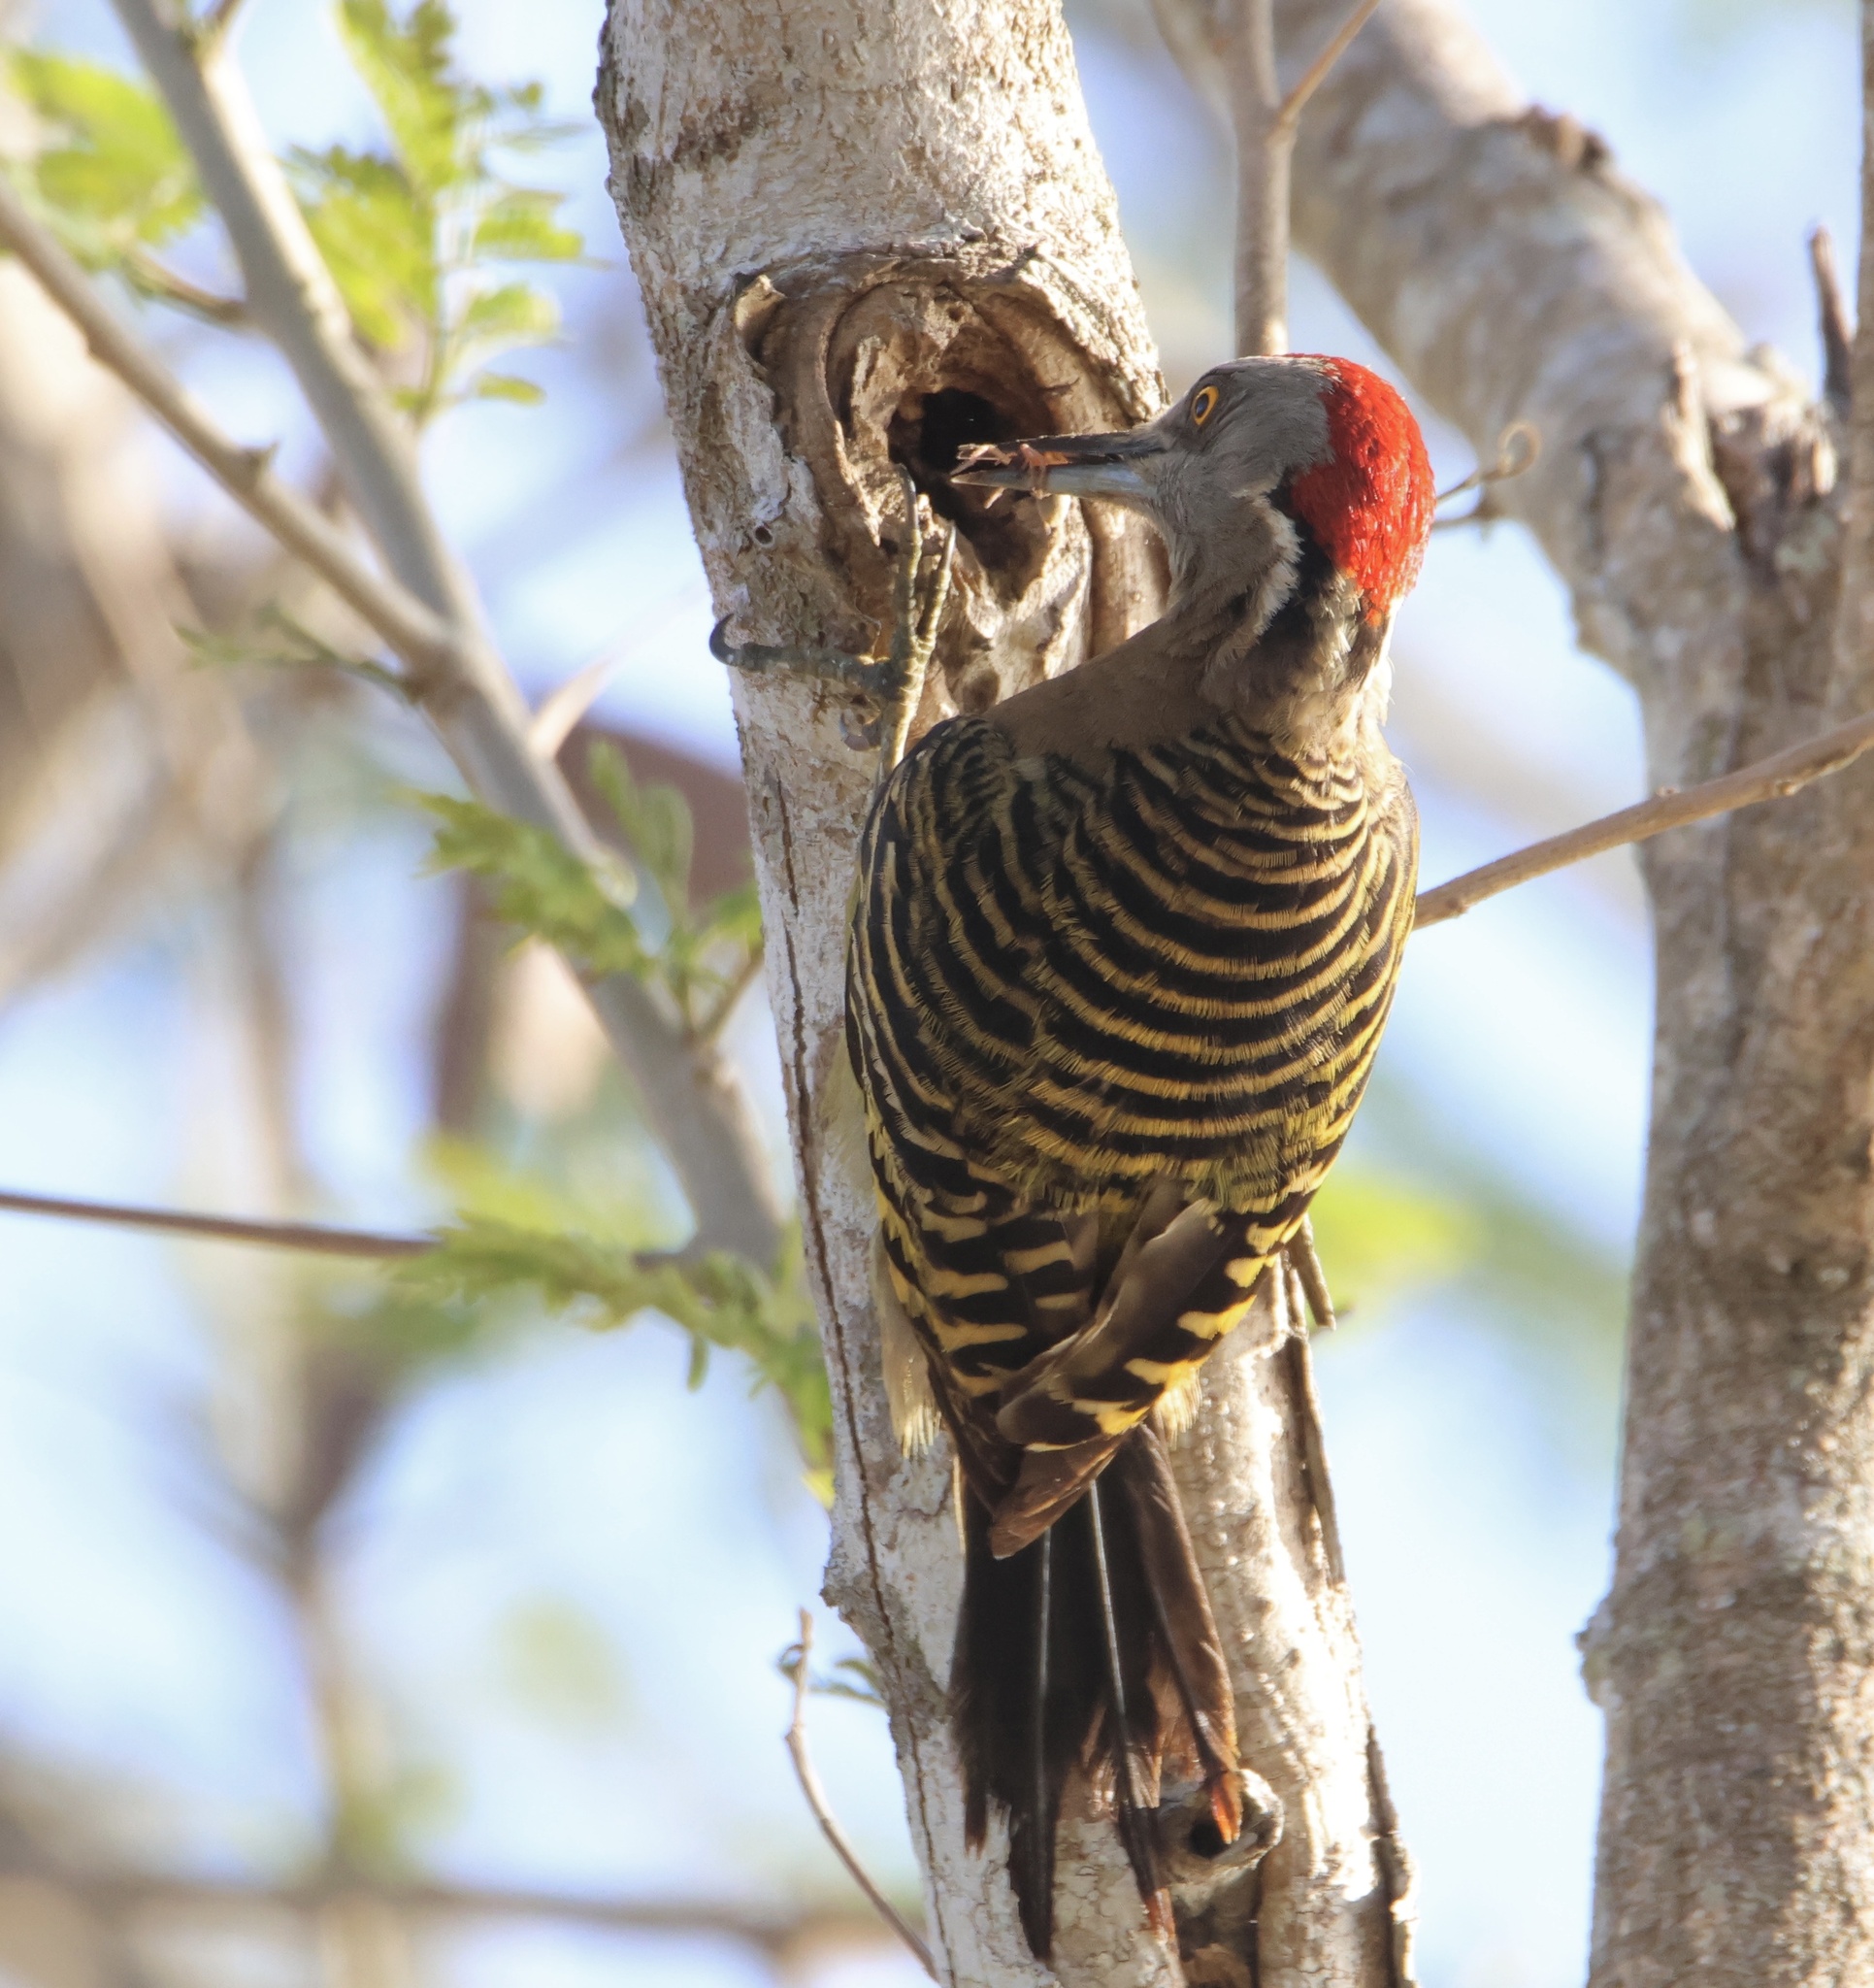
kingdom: Animalia
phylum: Chordata
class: Aves
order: Piciformes
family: Picidae
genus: Melanerpes
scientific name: Melanerpes striatus
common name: Hispaniolan woodpecker
